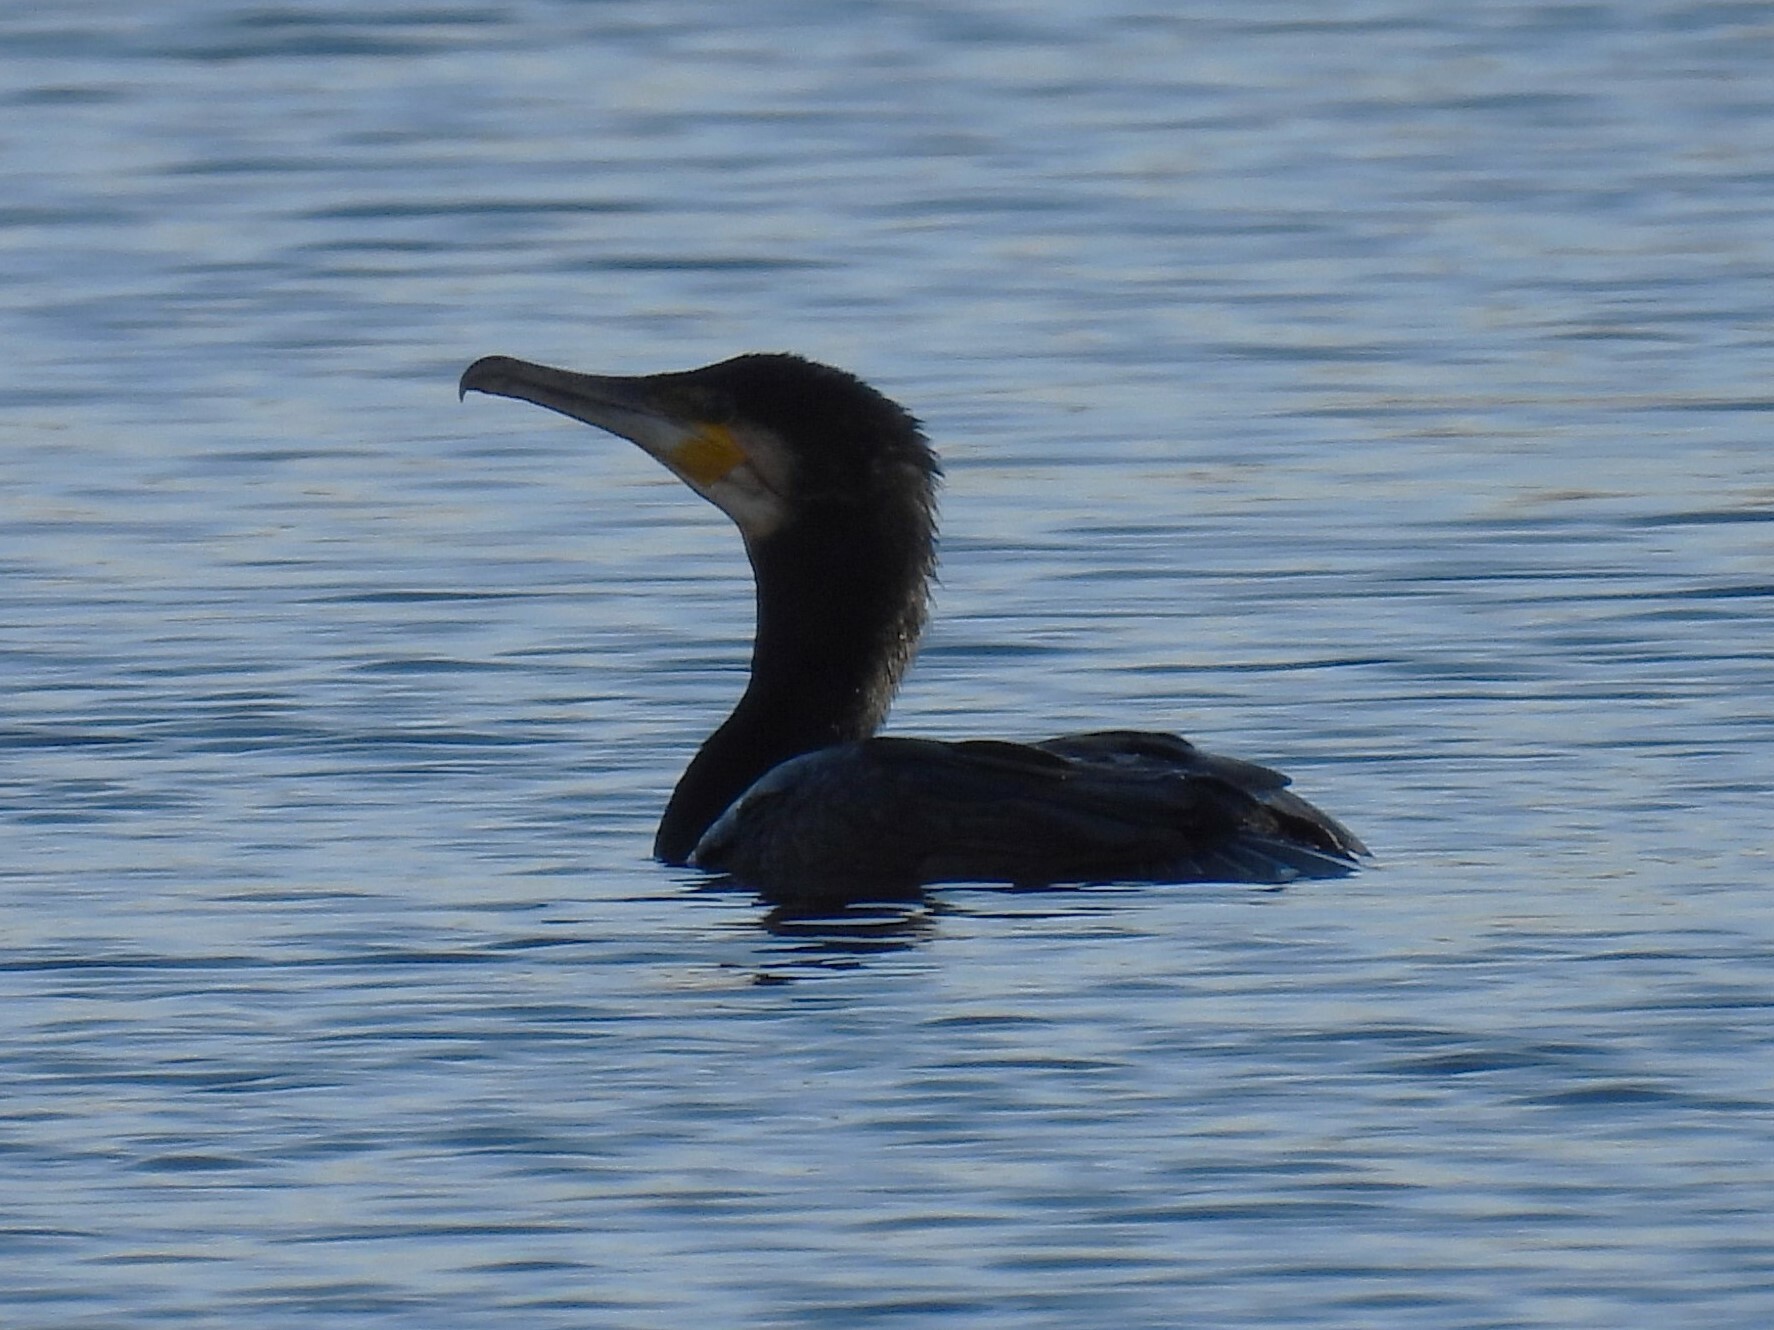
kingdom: Animalia
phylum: Chordata
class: Aves
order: Suliformes
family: Phalacrocoracidae
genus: Phalacrocorax
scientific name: Phalacrocorax carbo
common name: Great cormorant
